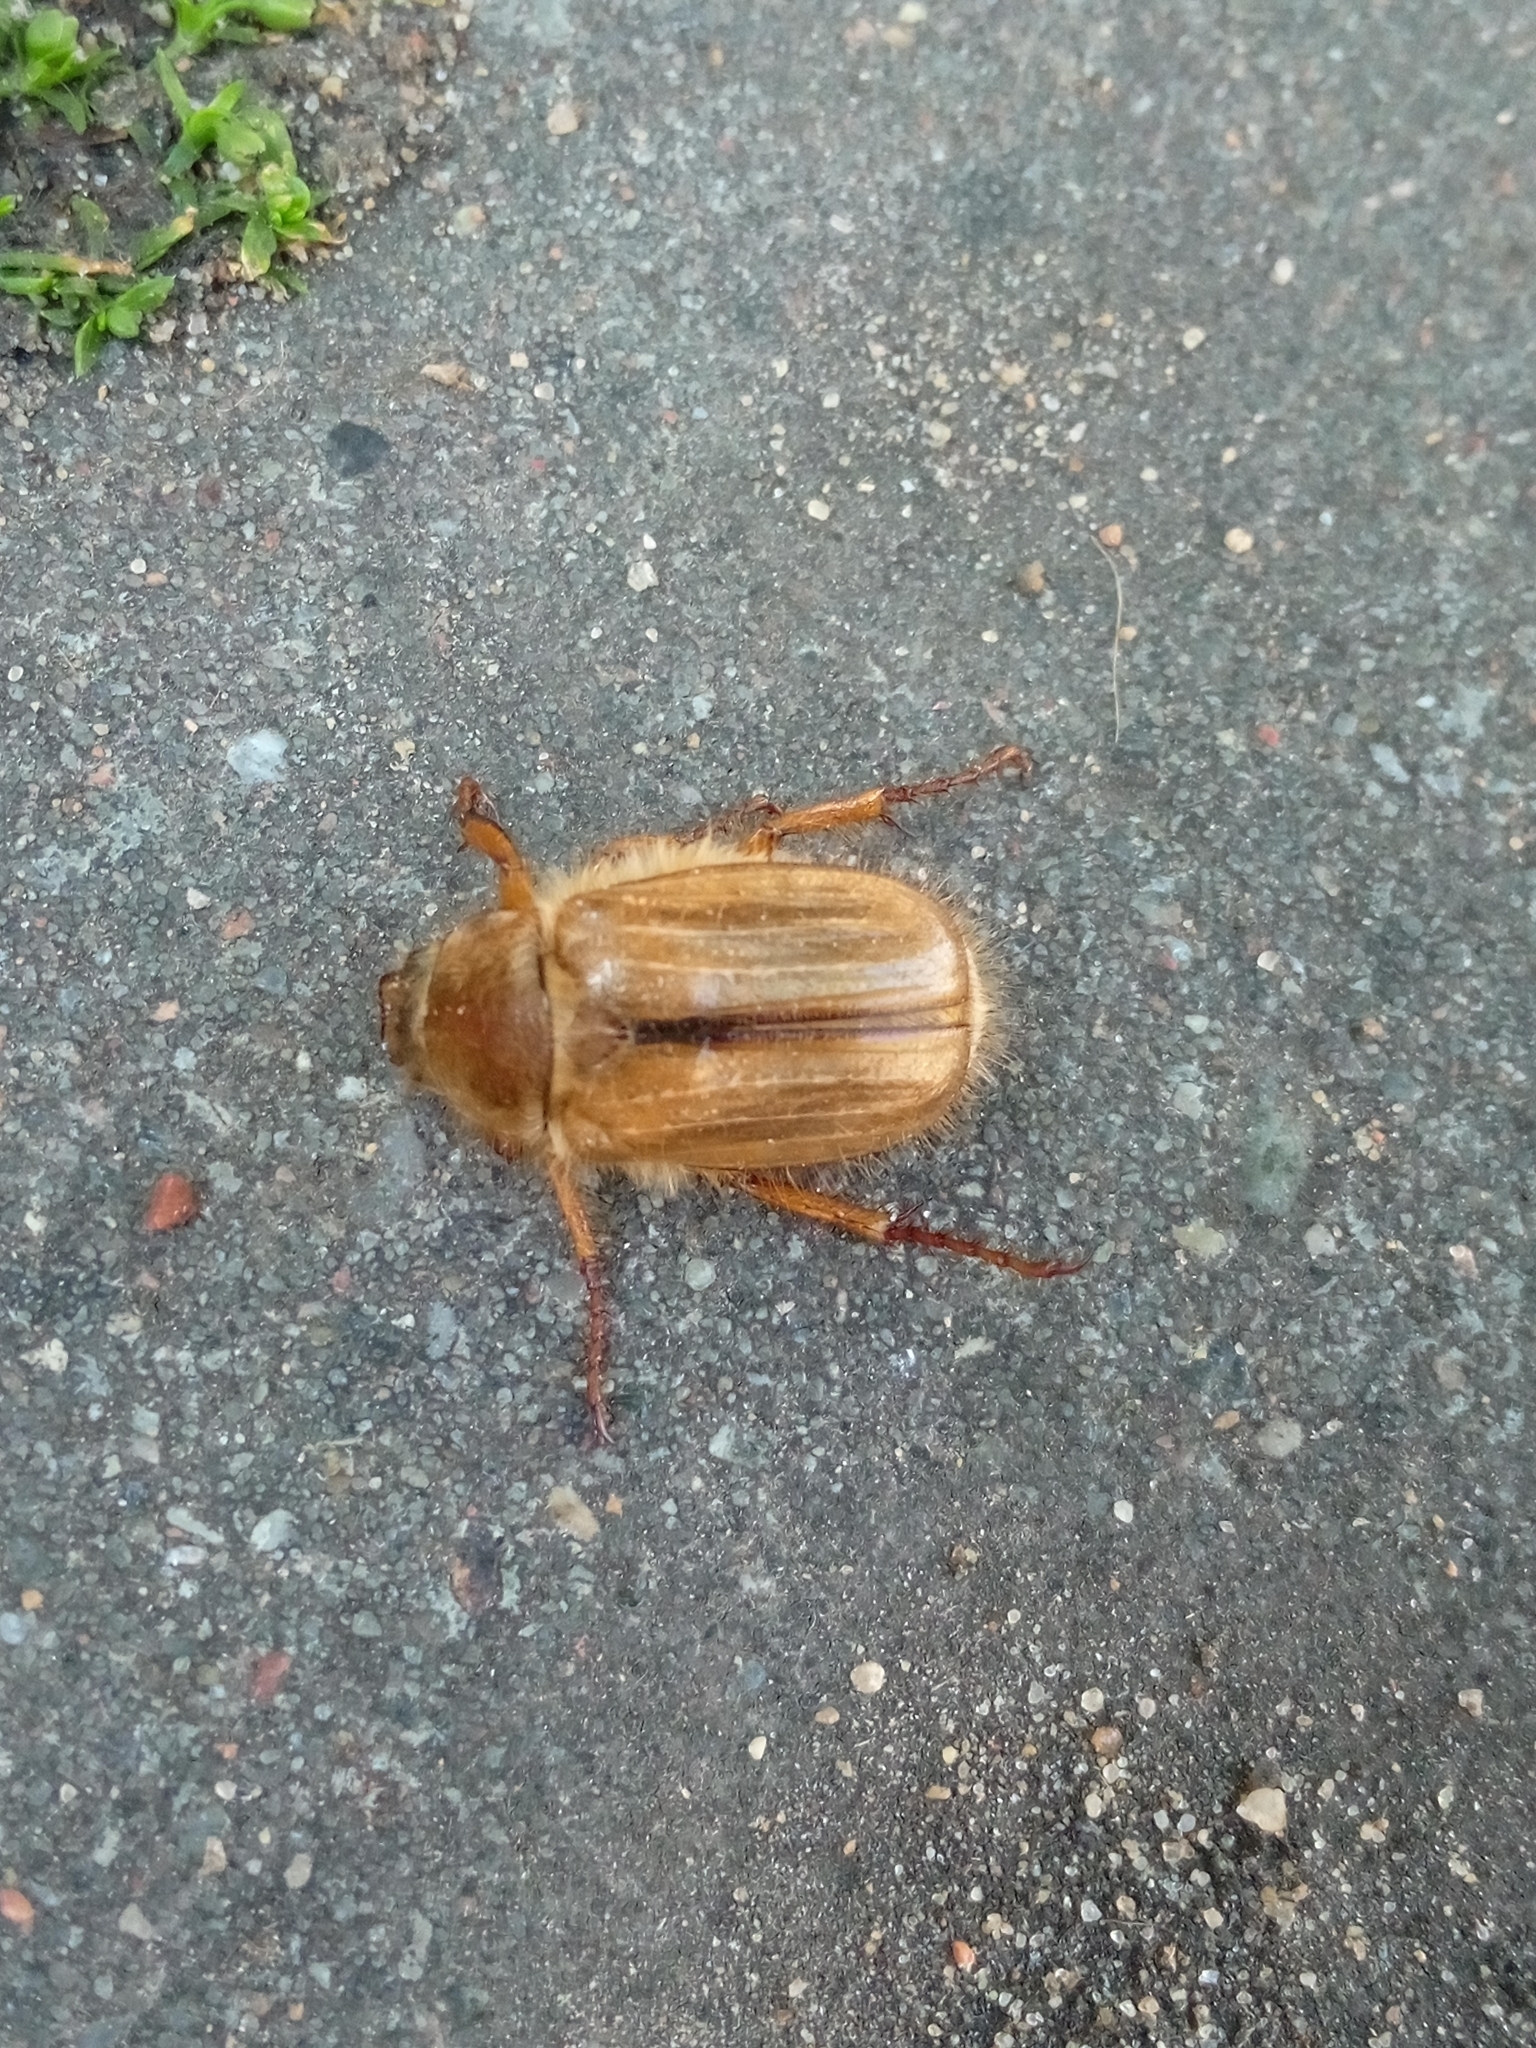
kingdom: Animalia
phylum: Arthropoda
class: Insecta
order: Coleoptera
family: Scarabaeidae
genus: Amphimallon
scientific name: Amphimallon solstitiale
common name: Summer chafer
